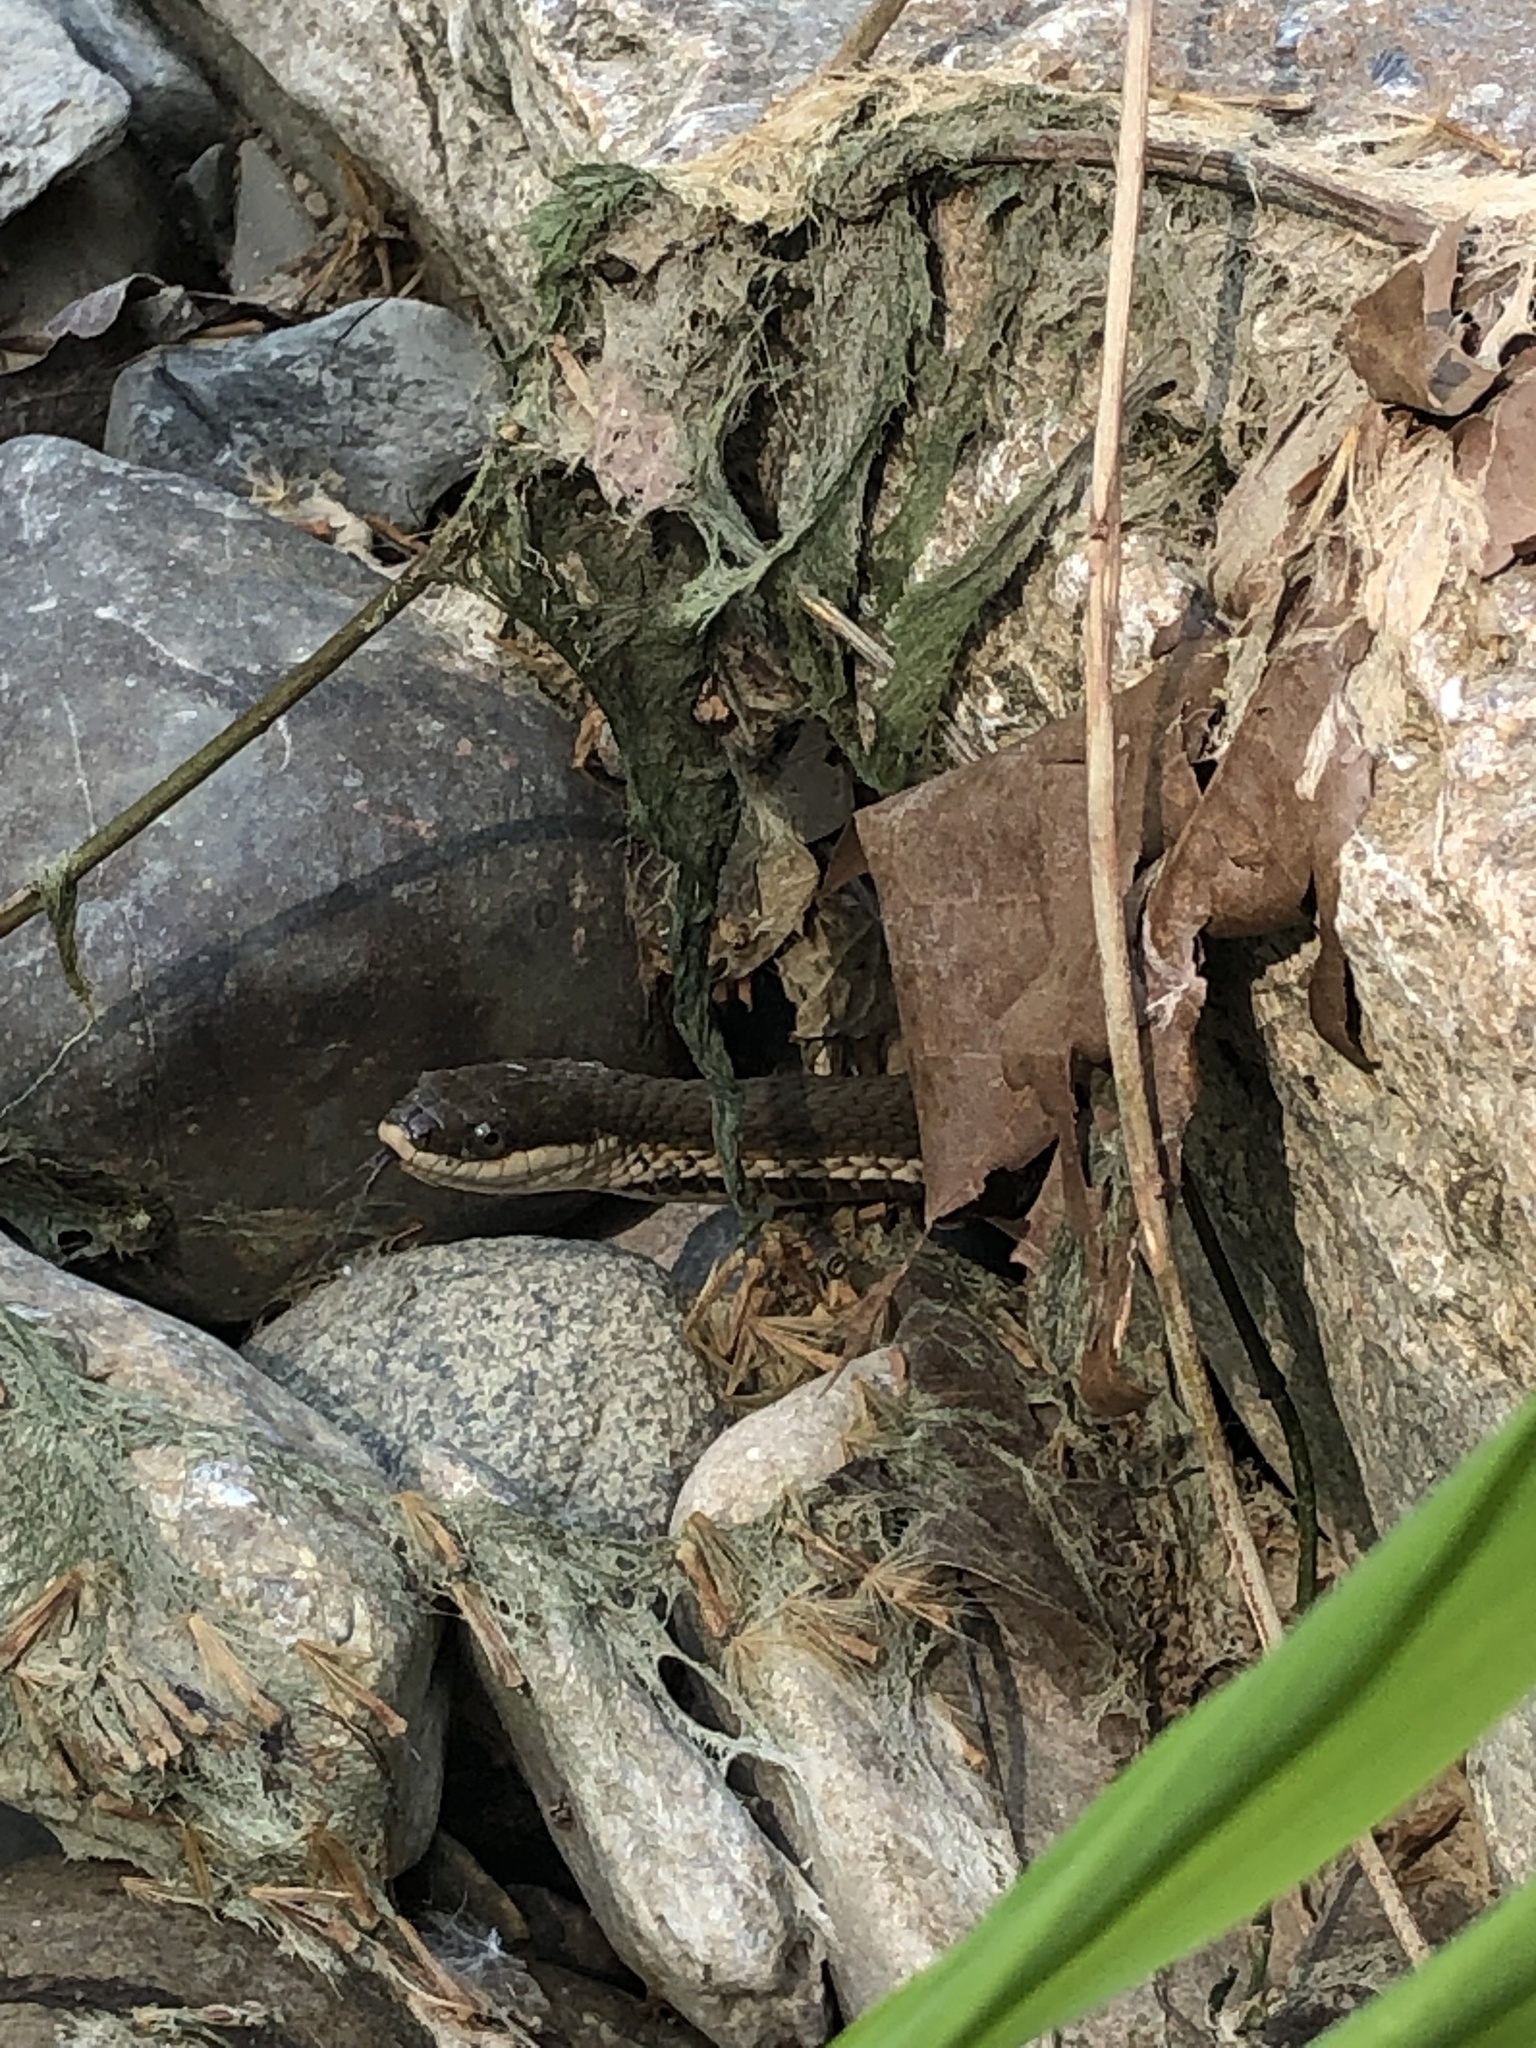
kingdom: Animalia
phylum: Chordata
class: Squamata
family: Colubridae
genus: Regina
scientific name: Regina septemvittata
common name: Queen snake
